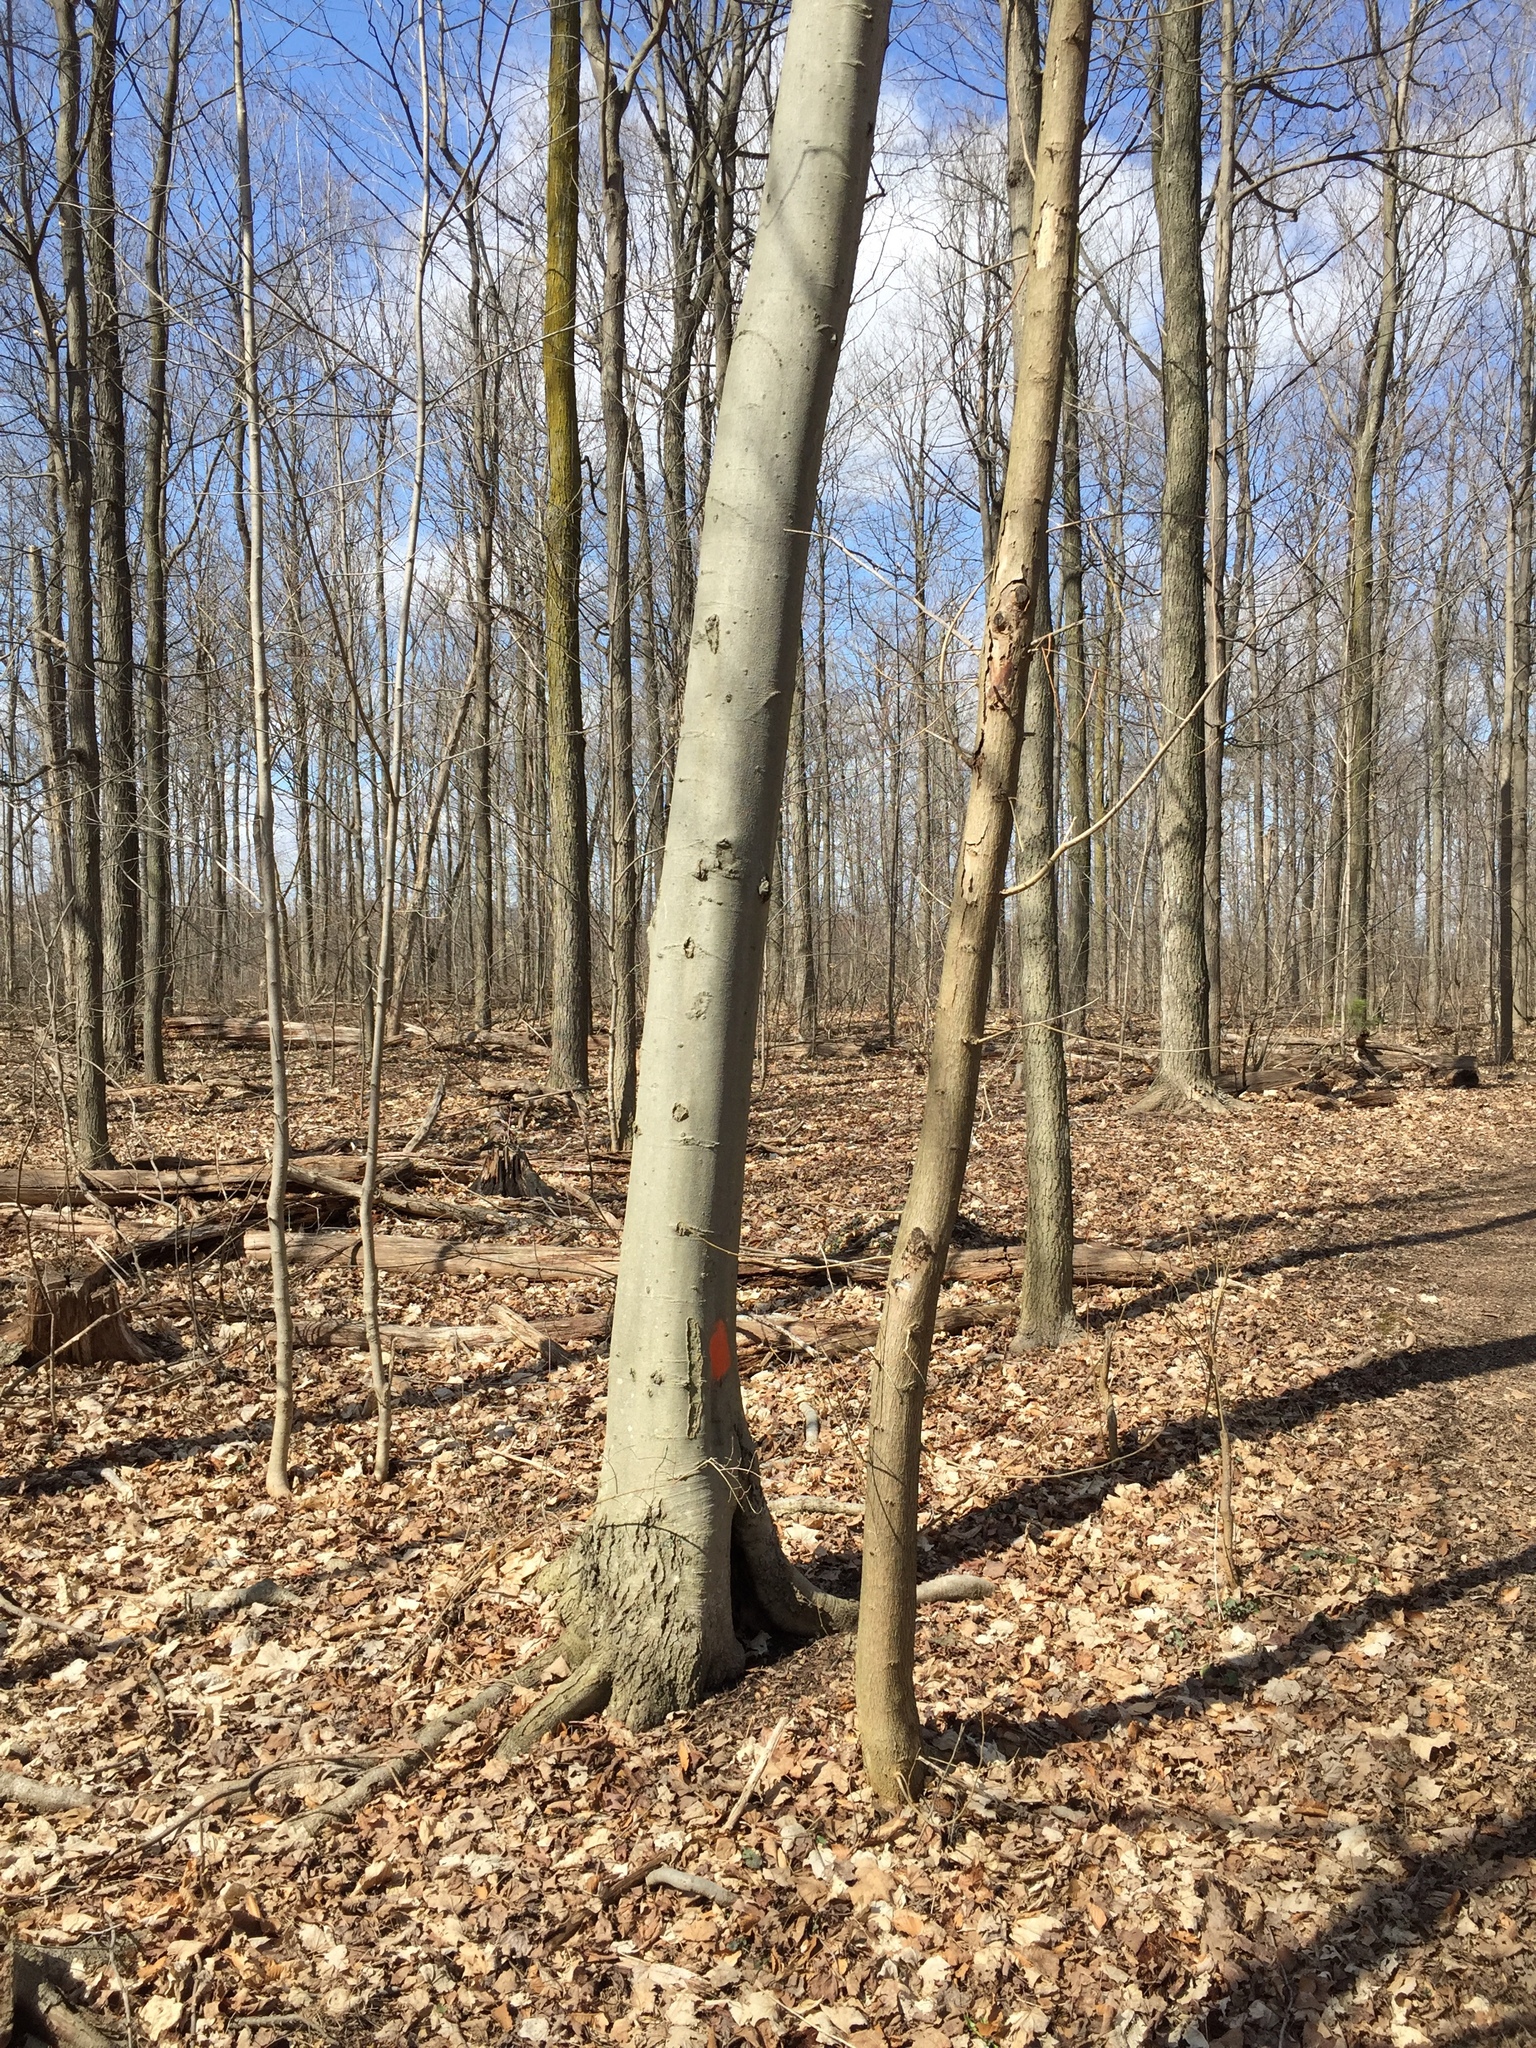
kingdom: Plantae
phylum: Tracheophyta
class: Magnoliopsida
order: Fagales
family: Fagaceae
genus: Fagus
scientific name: Fagus grandifolia
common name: American beech
